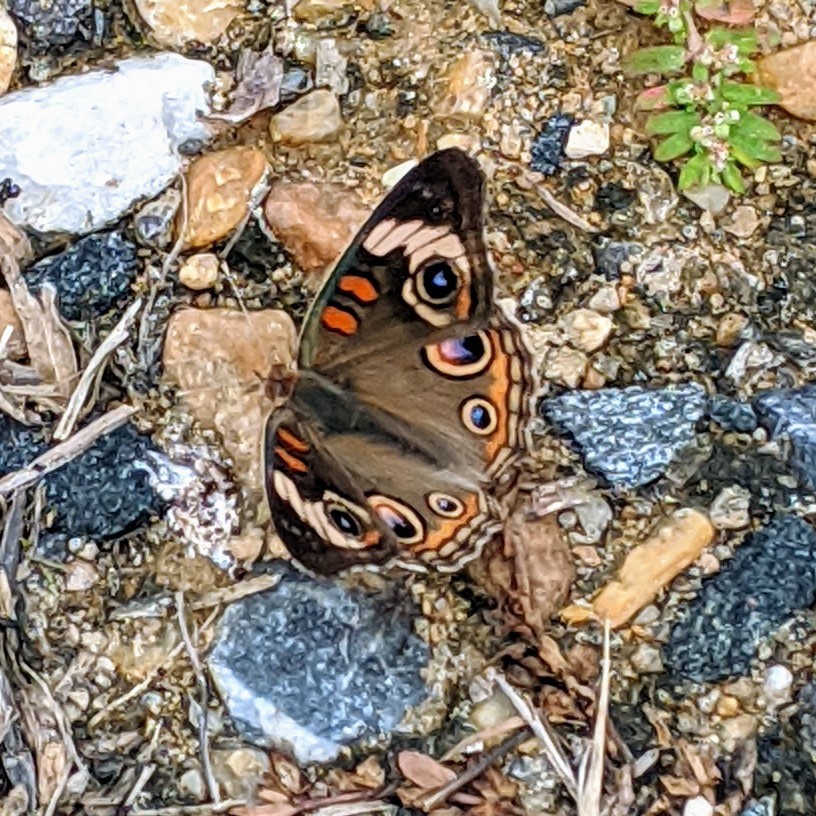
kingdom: Animalia
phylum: Arthropoda
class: Insecta
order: Lepidoptera
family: Nymphalidae
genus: Junonia
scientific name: Junonia coenia
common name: Common buckeye
